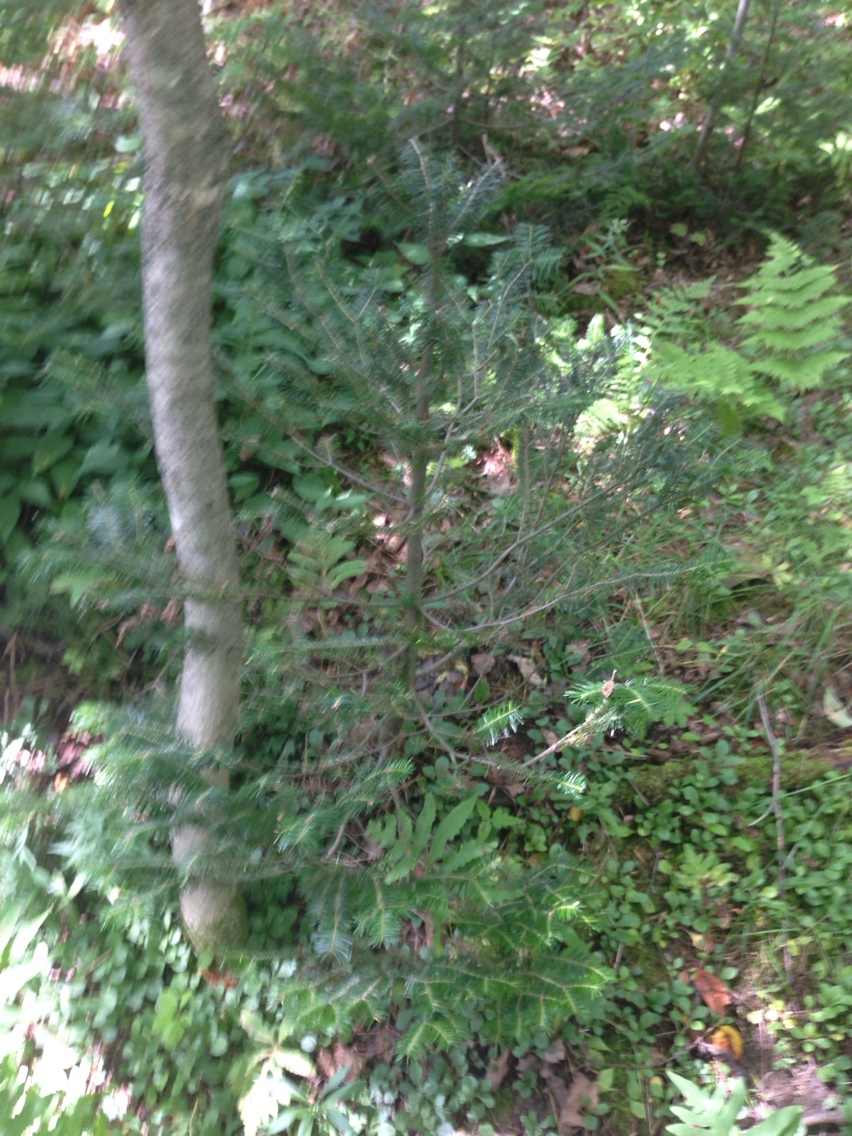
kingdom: Plantae
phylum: Tracheophyta
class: Pinopsida
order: Pinales
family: Pinaceae
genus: Abies
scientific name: Abies balsamea
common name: Balsam fir
